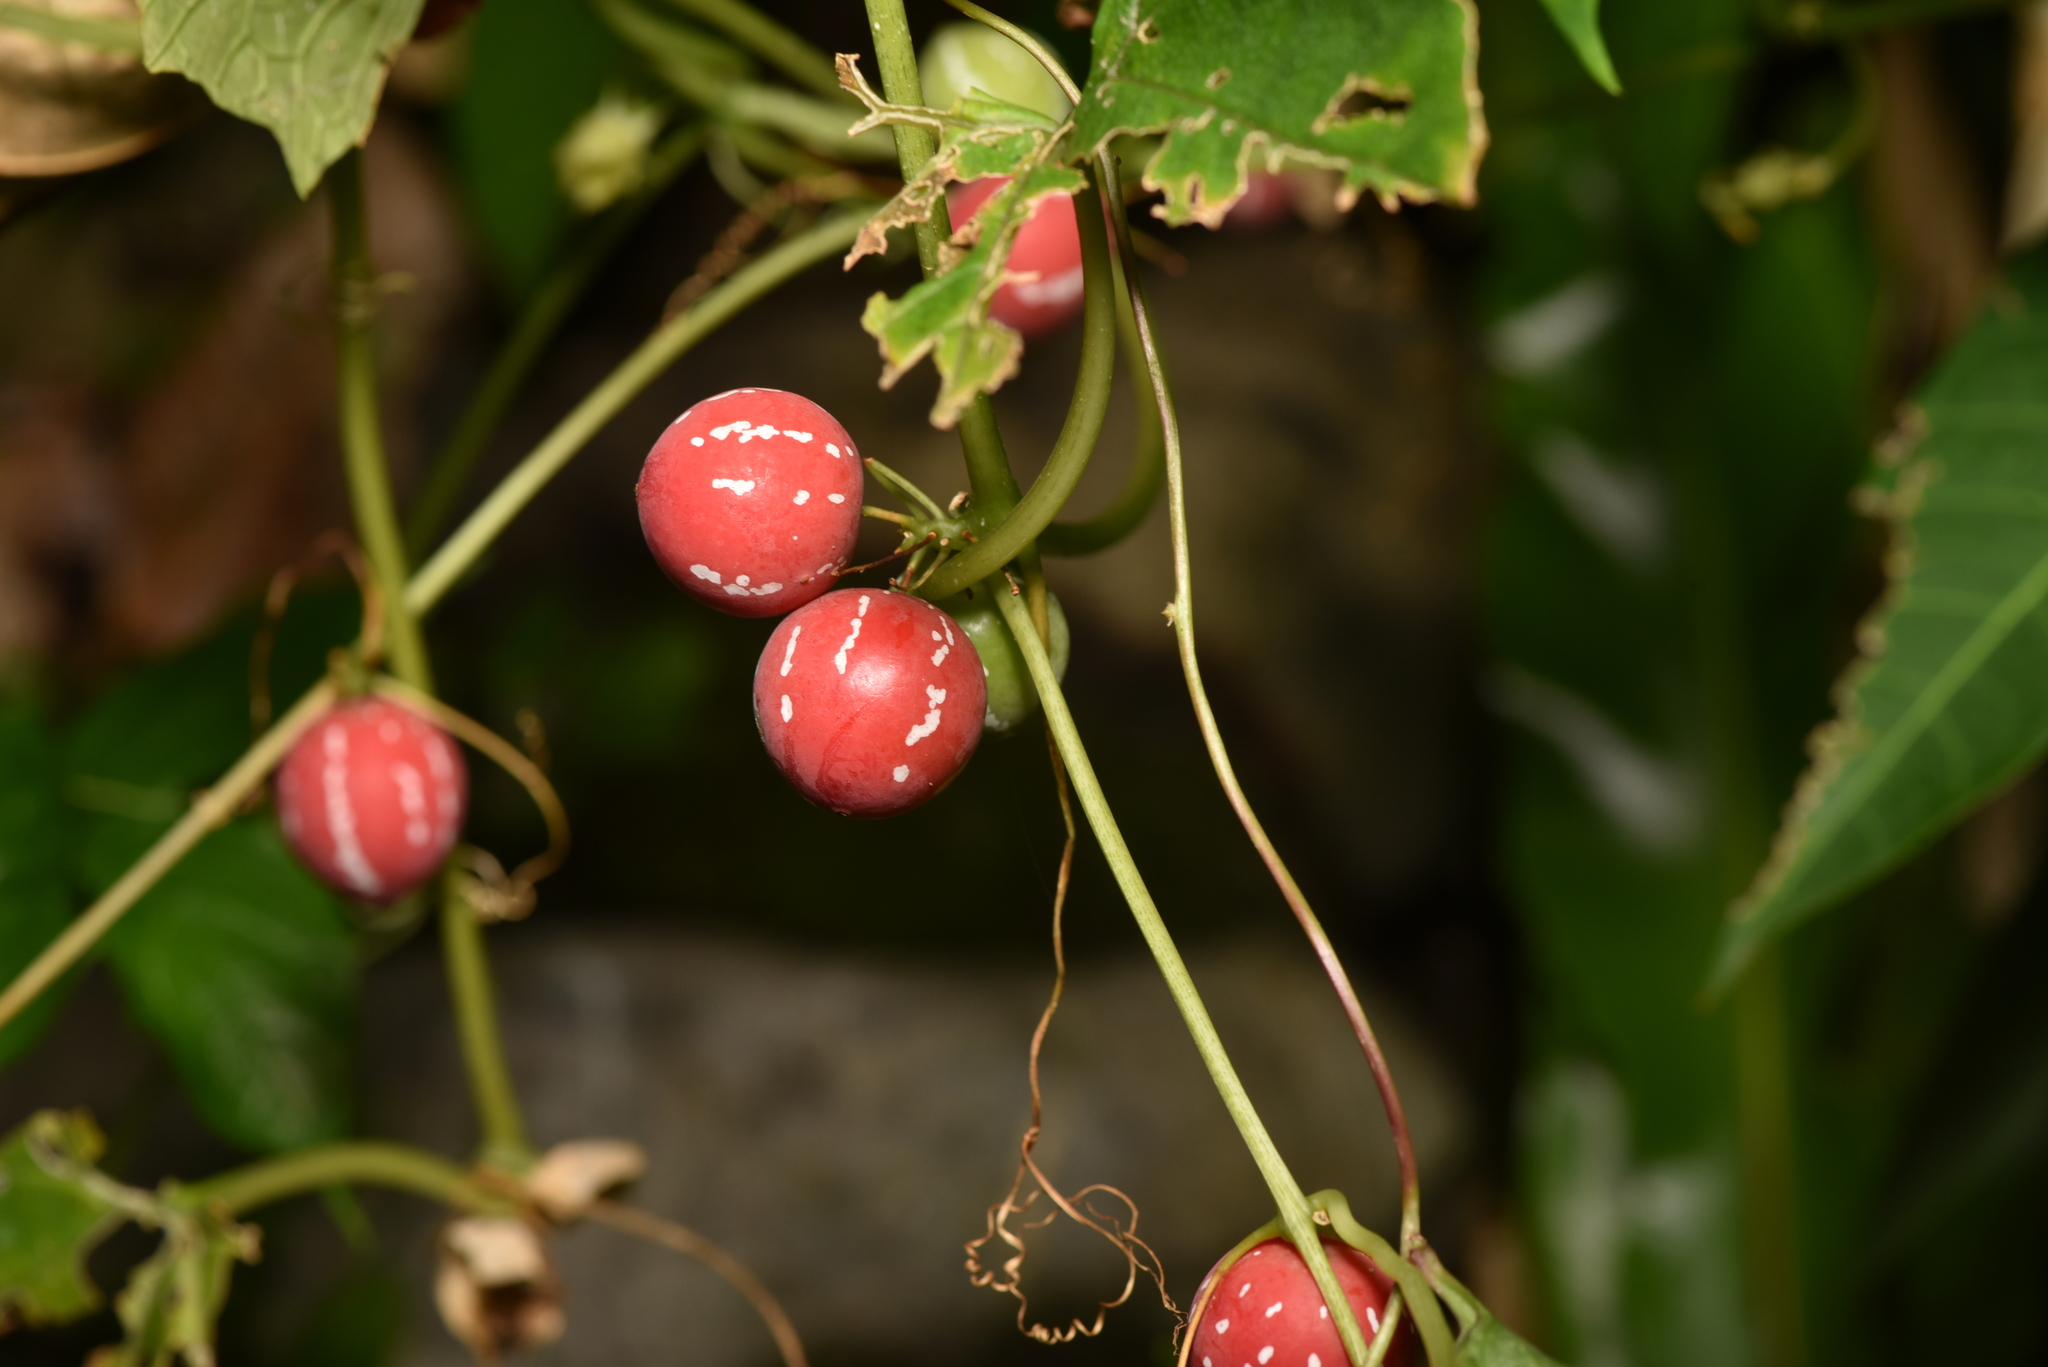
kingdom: Plantae
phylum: Tracheophyta
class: Magnoliopsida
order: Cucurbitales
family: Cucurbitaceae
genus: Diplocyclos
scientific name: Diplocyclos palmatus
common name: Striped-cucumber
